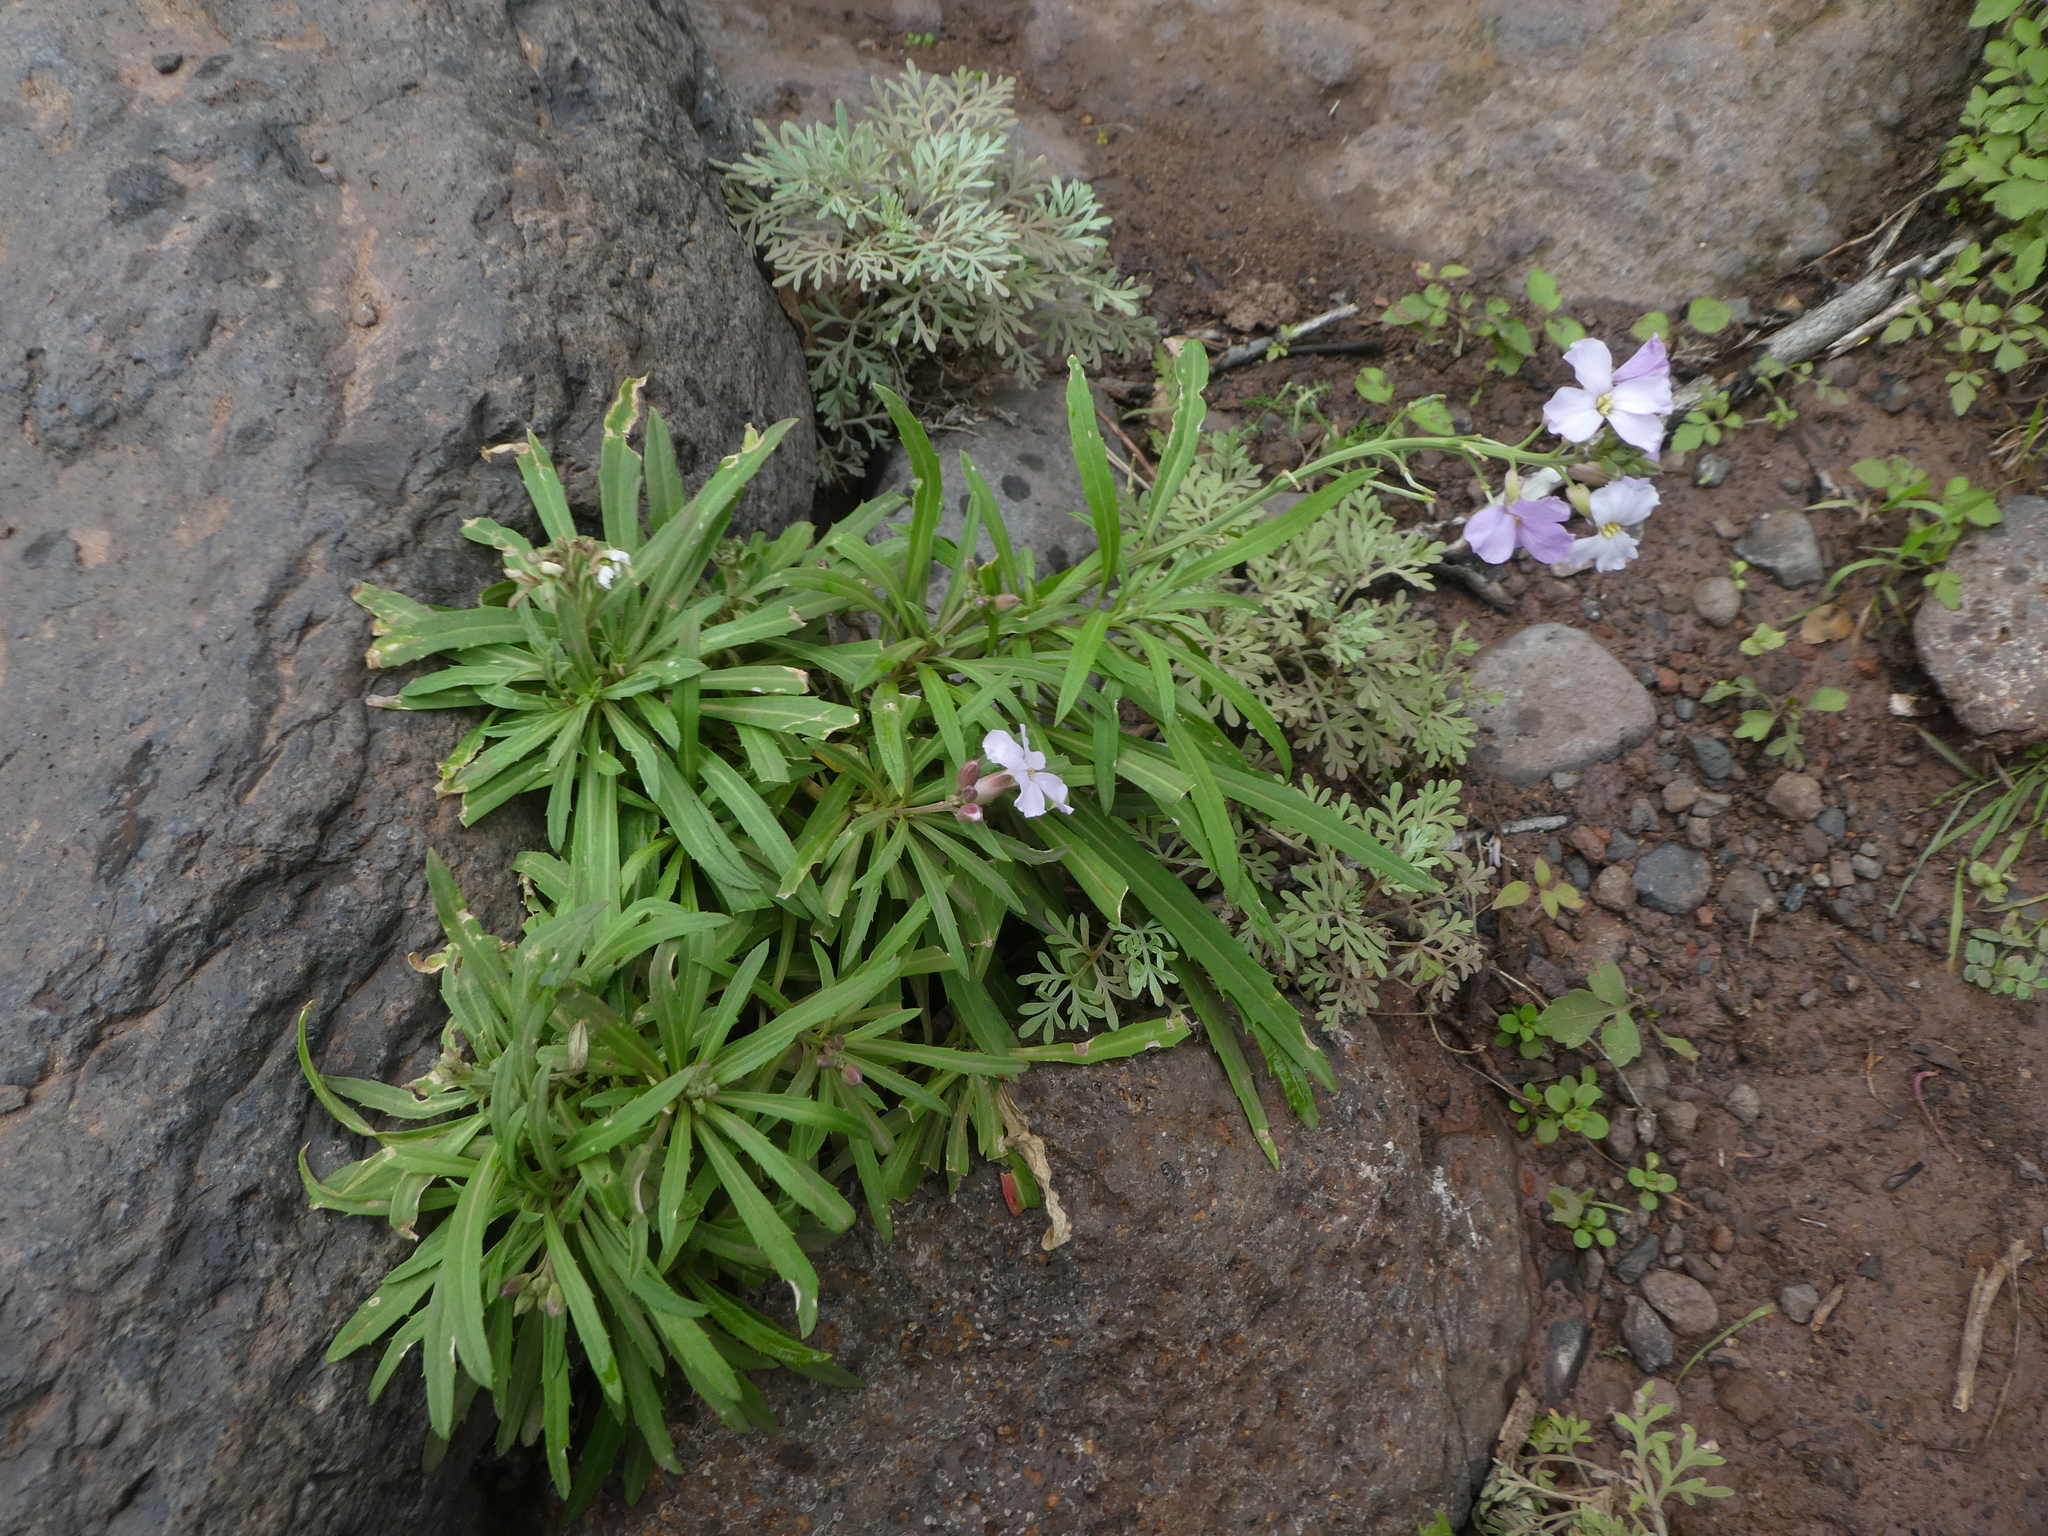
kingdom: Plantae
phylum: Tracheophyta
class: Magnoliopsida
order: Brassicales
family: Brassicaceae
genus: Erysimum
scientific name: Erysimum bicolor
